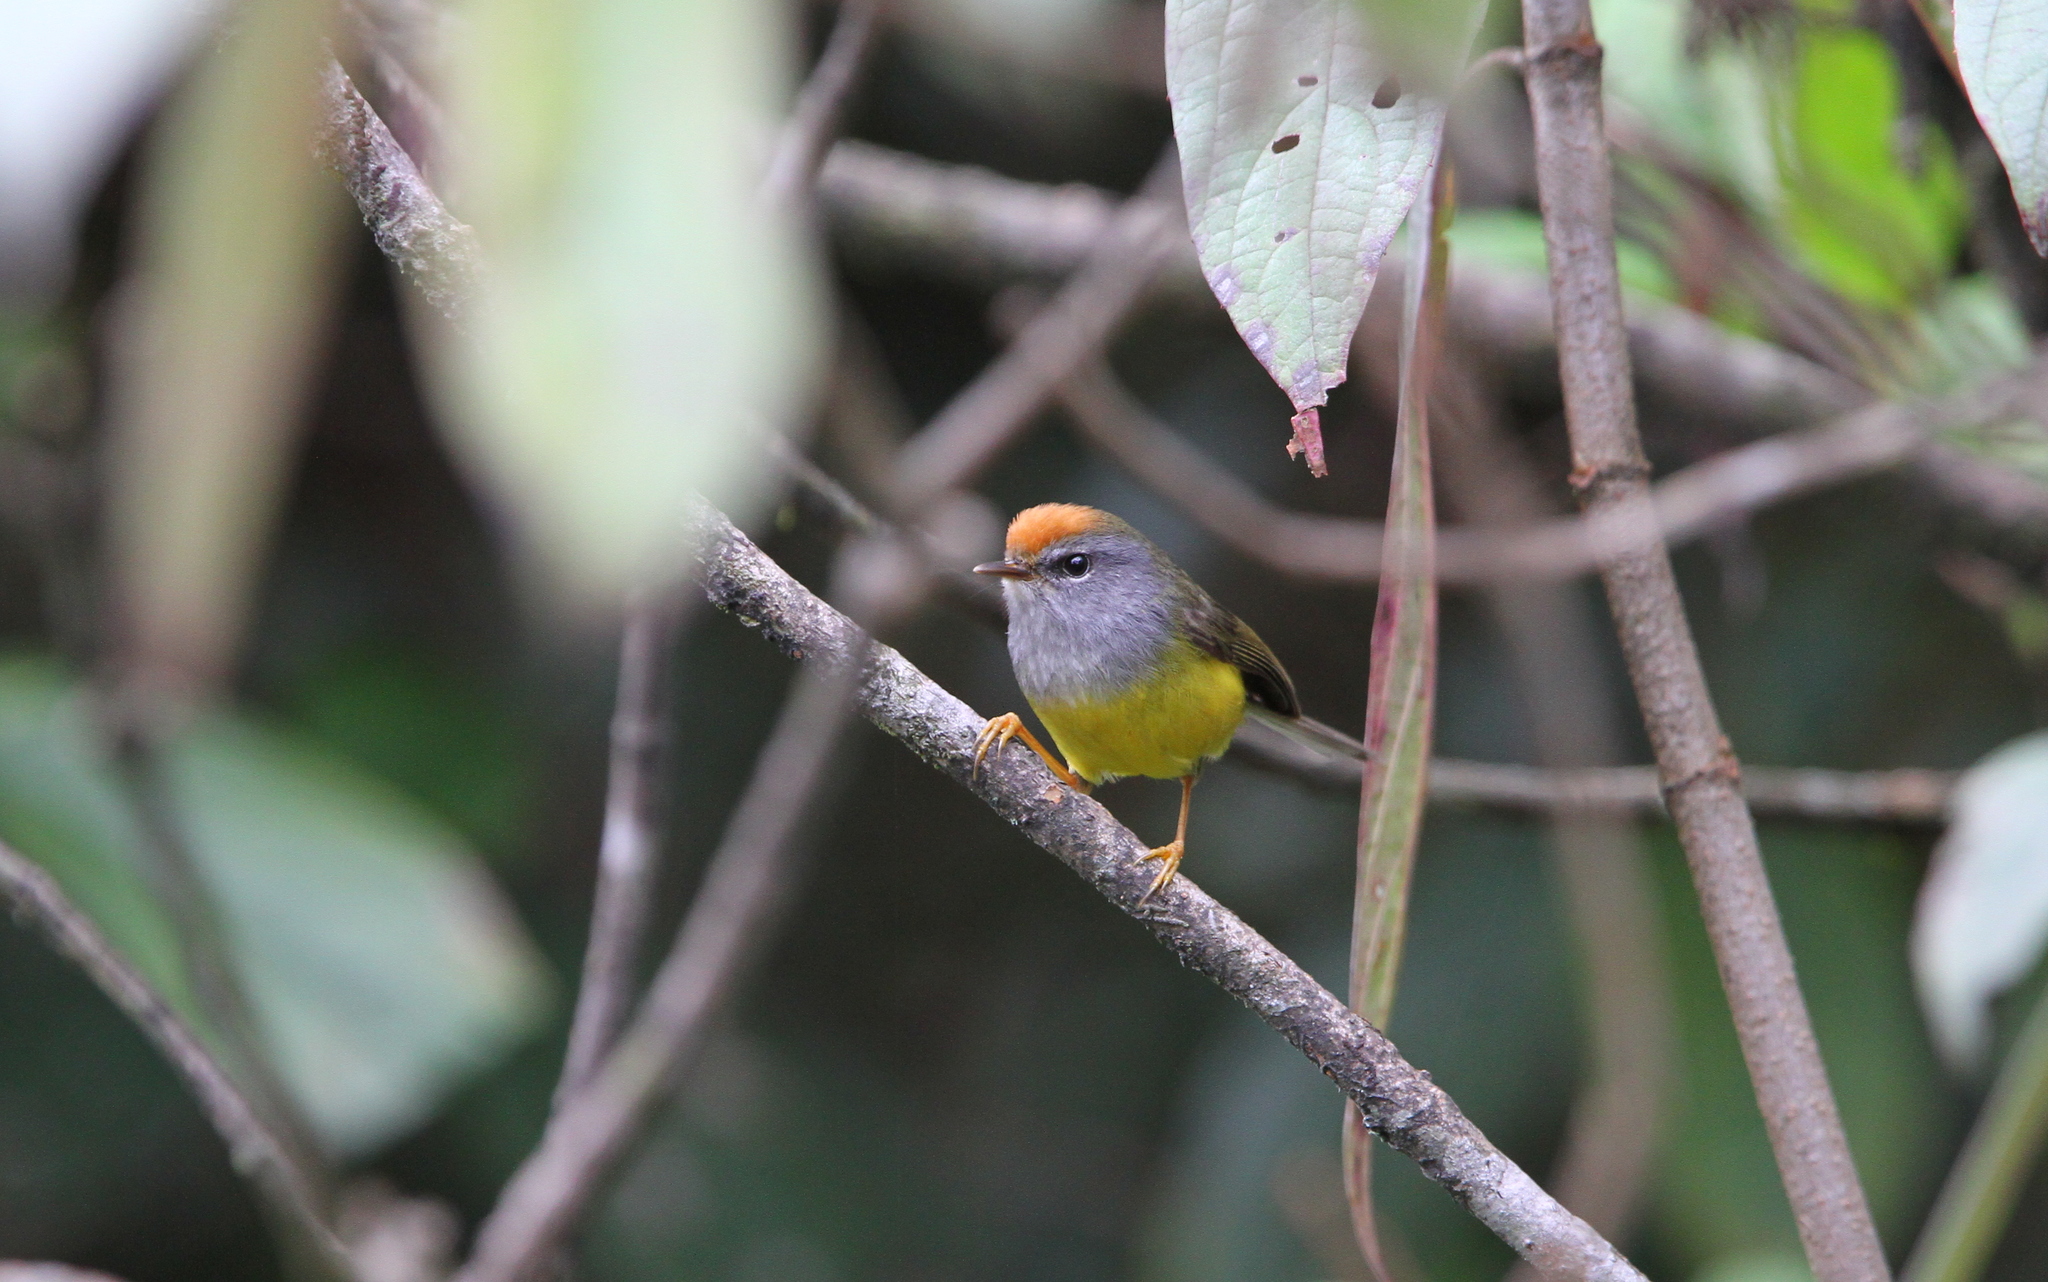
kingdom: Animalia
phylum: Chordata
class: Aves
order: Passeriformes
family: Cettiidae
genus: Tickellia
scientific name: Tickellia hodgsoni
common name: Broad-billed warbler
